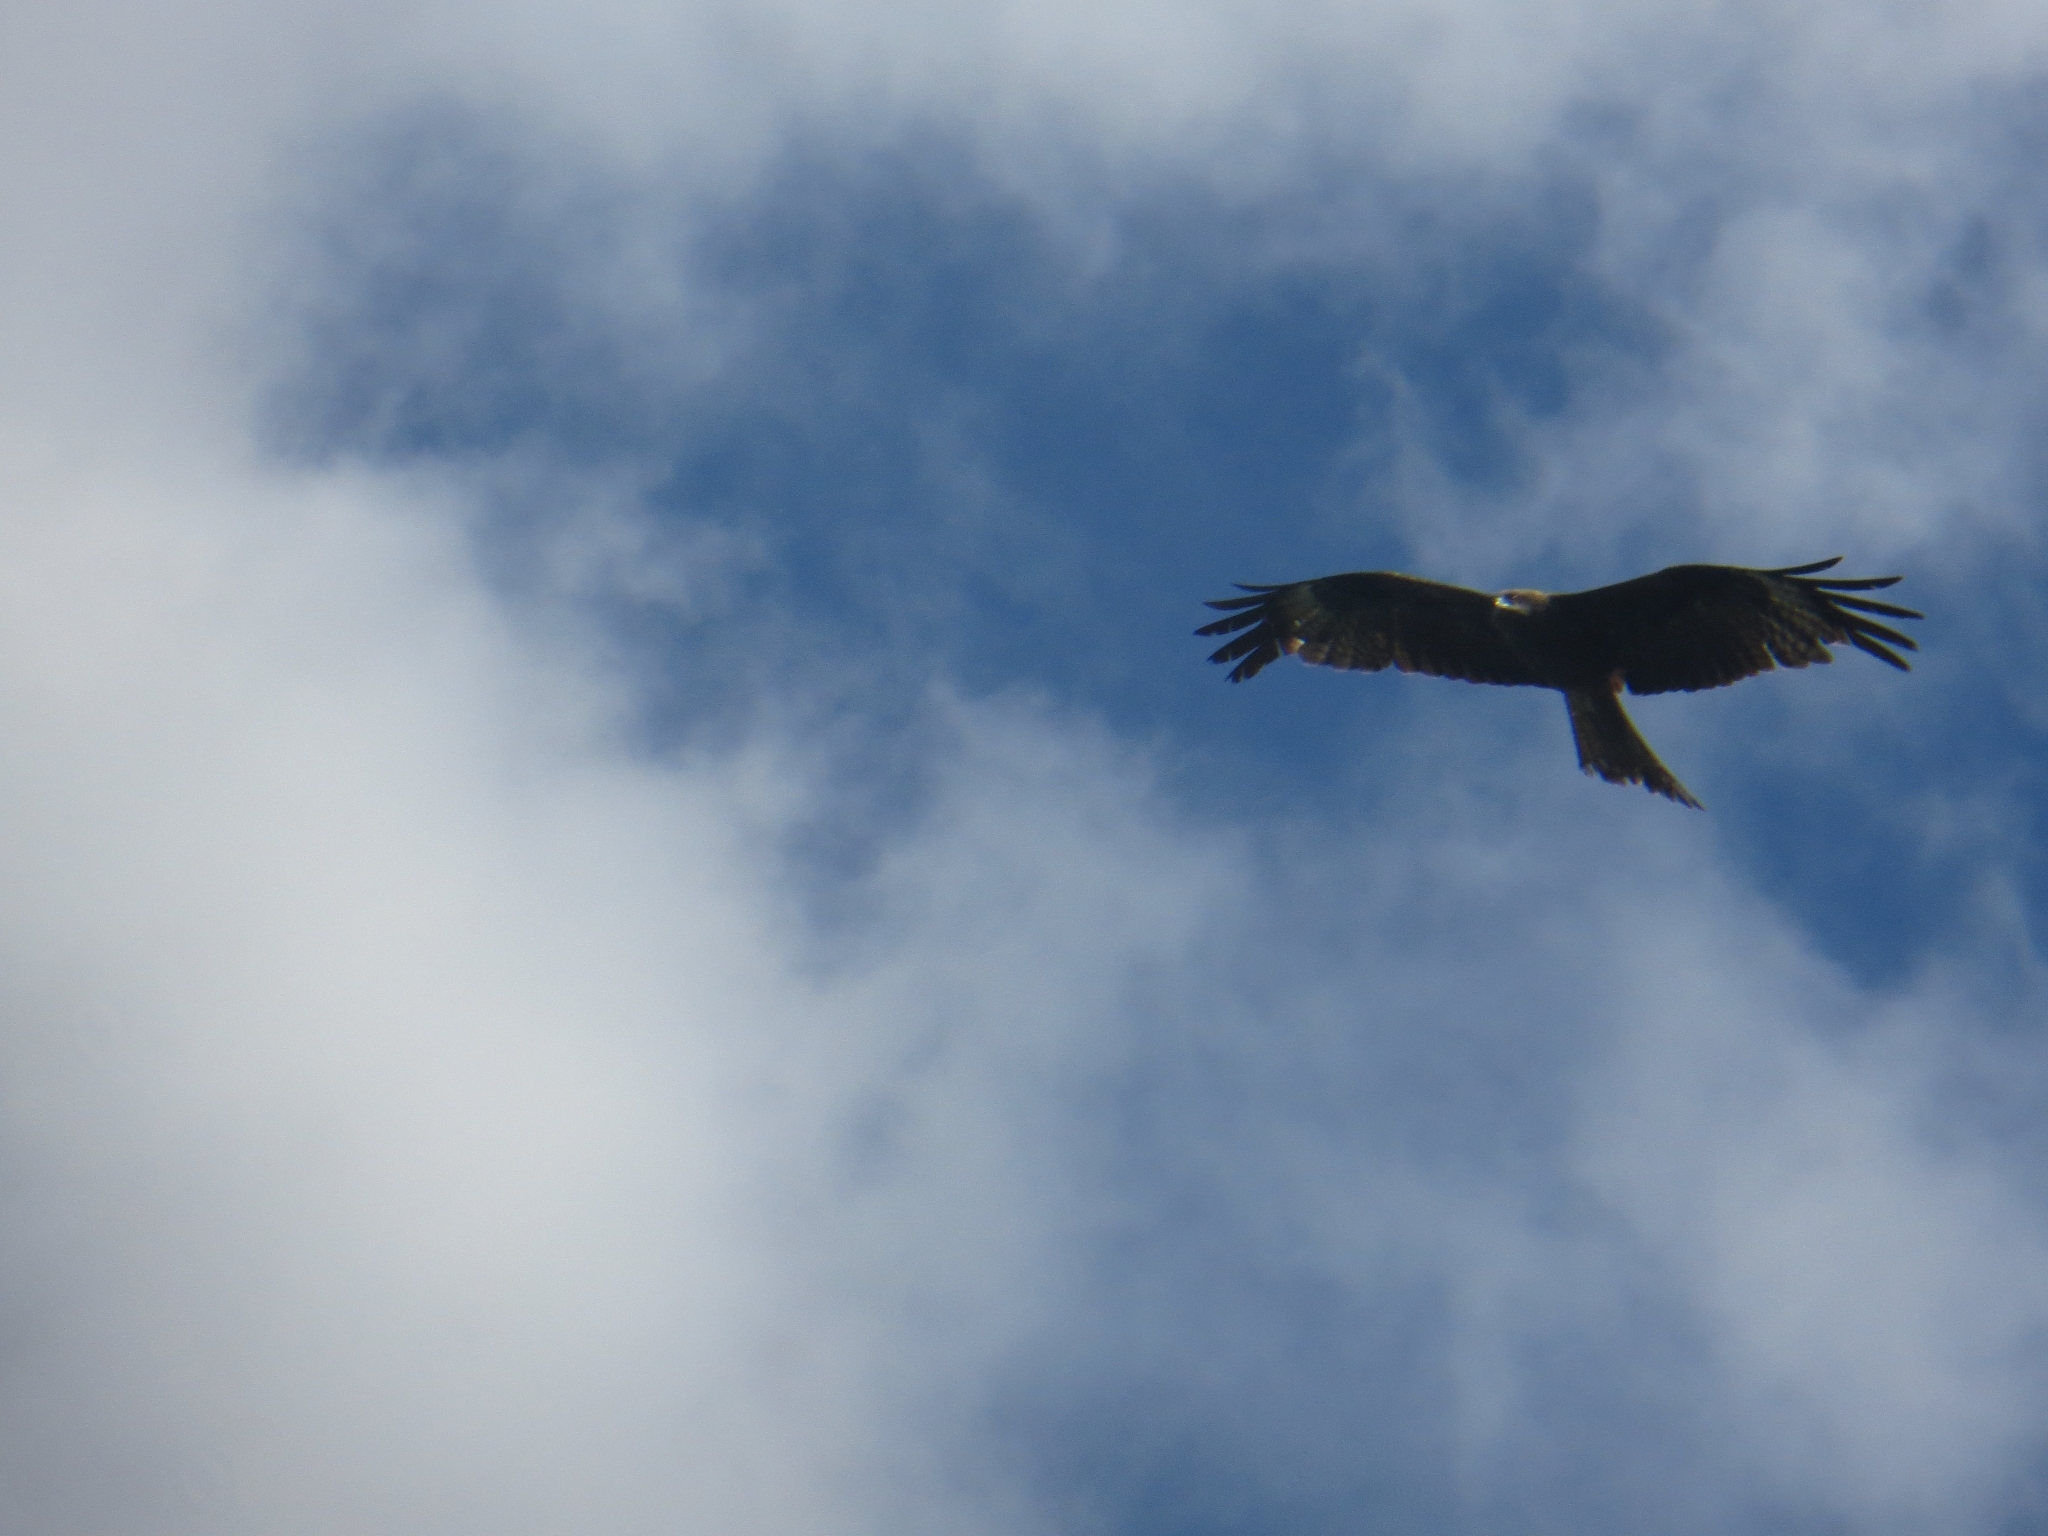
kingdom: Animalia
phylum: Chordata
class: Aves
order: Accipitriformes
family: Accipitridae
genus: Milvus
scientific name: Milvus migrans
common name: Black kite
